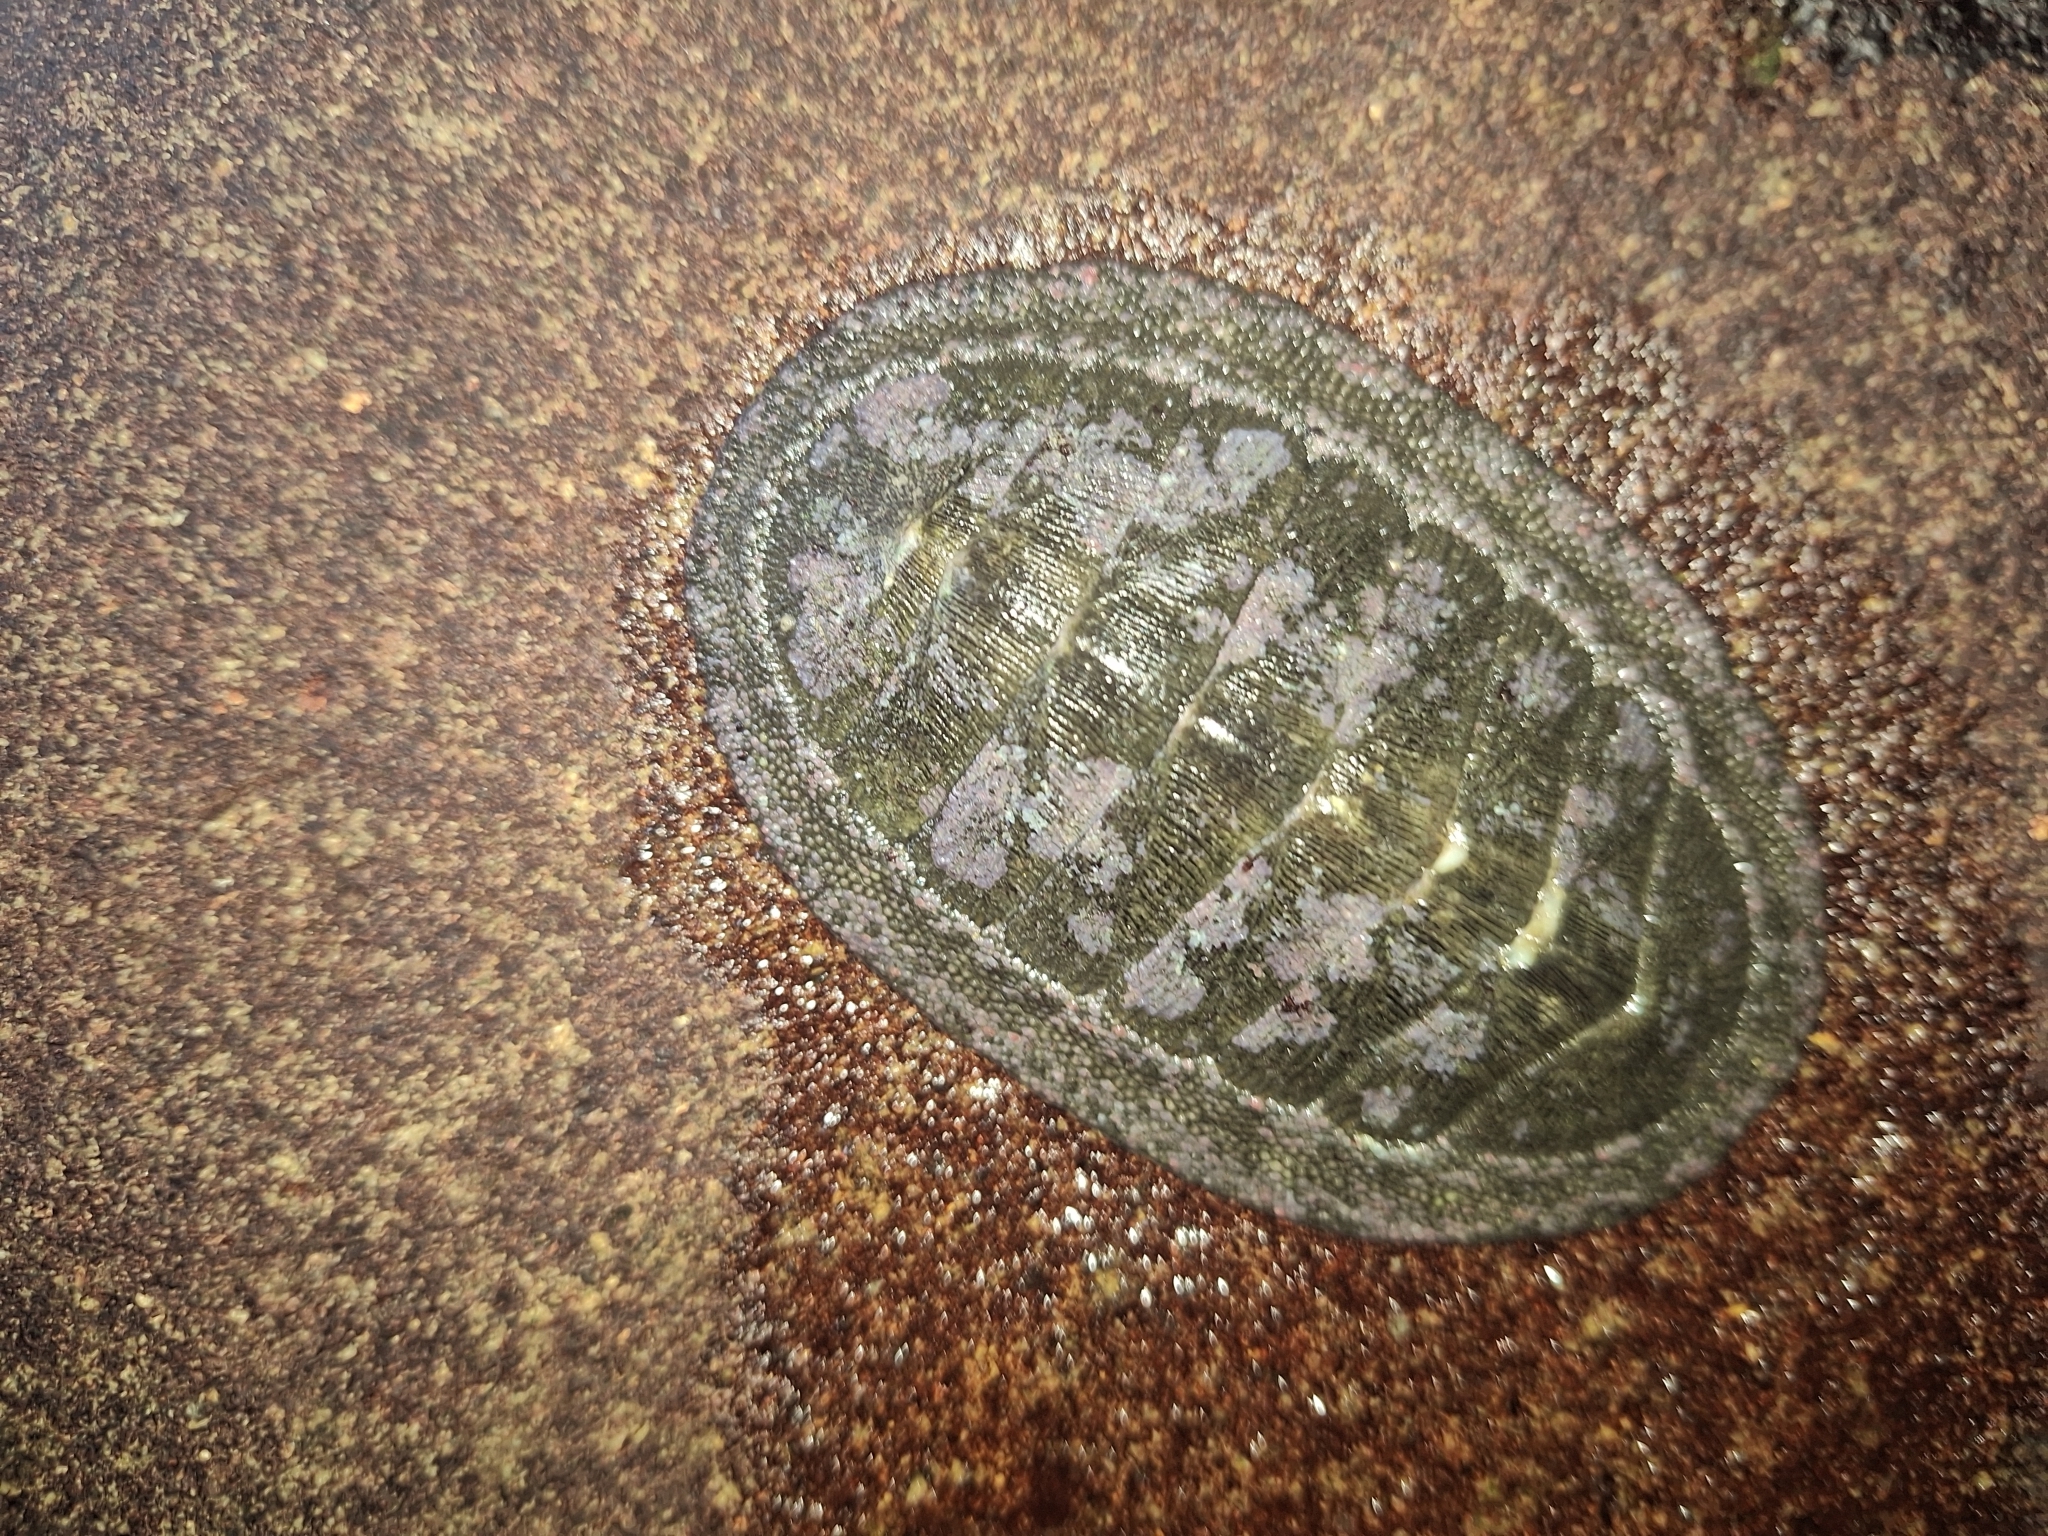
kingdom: Animalia
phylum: Mollusca
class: Polyplacophora
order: Chitonida
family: Chitonidae
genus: Chiton
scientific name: Chiton stokesii
